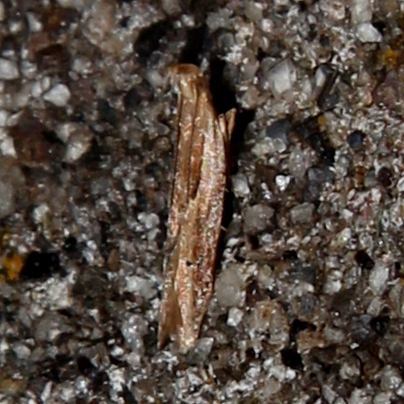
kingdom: Animalia
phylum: Arthropoda
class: Insecta
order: Lepidoptera
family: Depressariidae
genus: Eutorna
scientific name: Eutorna symmorpha
